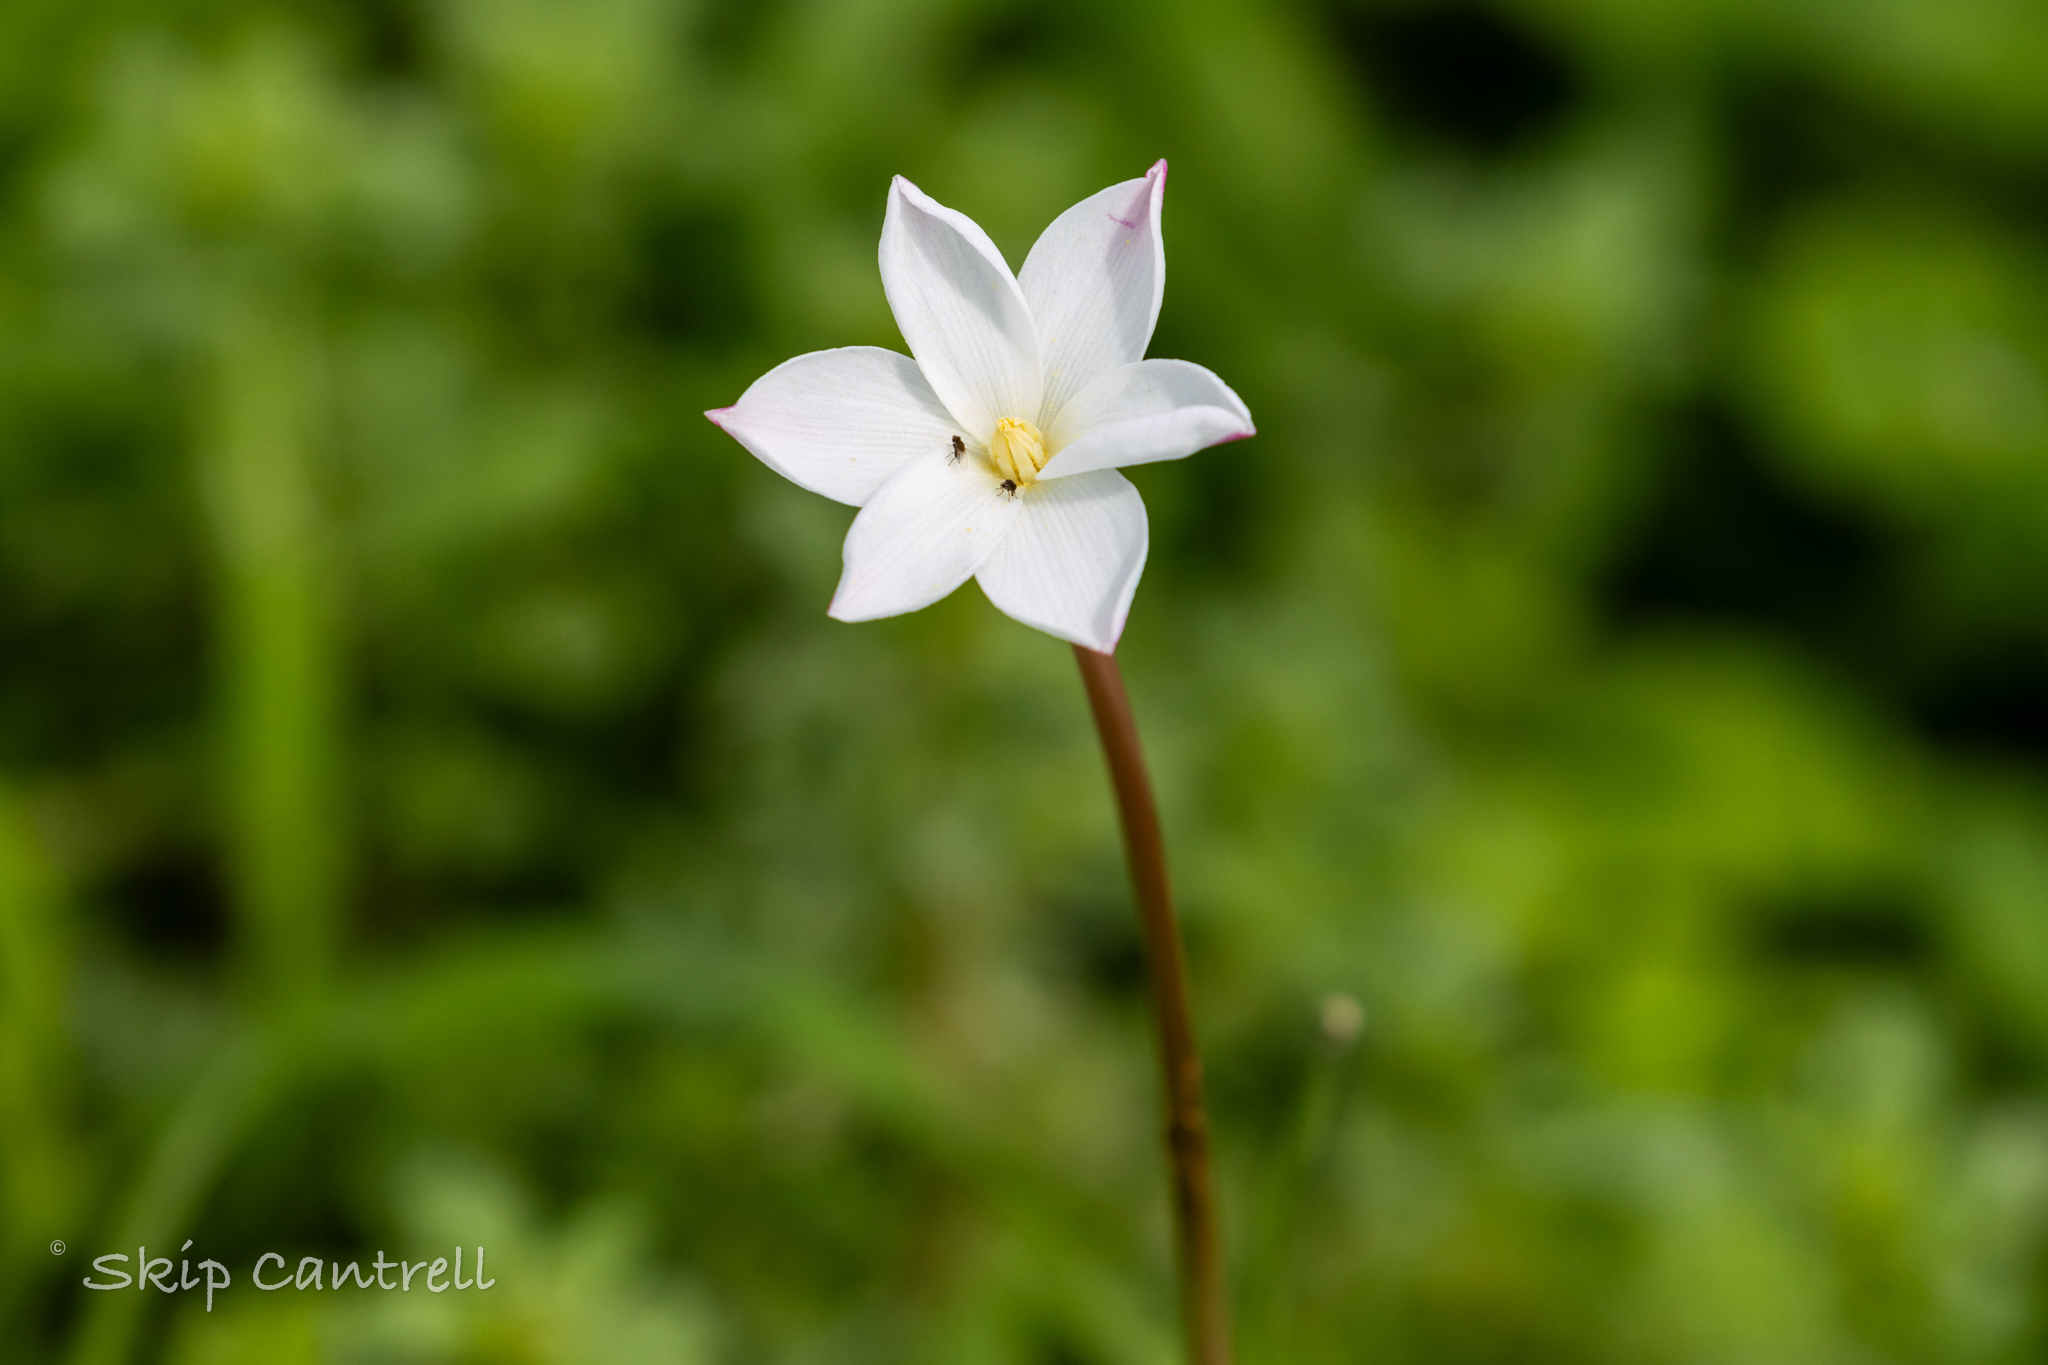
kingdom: Plantae
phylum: Tracheophyta
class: Liliopsida
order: Asparagales
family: Amaryllidaceae
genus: Zephyranthes
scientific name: Zephyranthes chlorosolen
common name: Evening rain-lily
